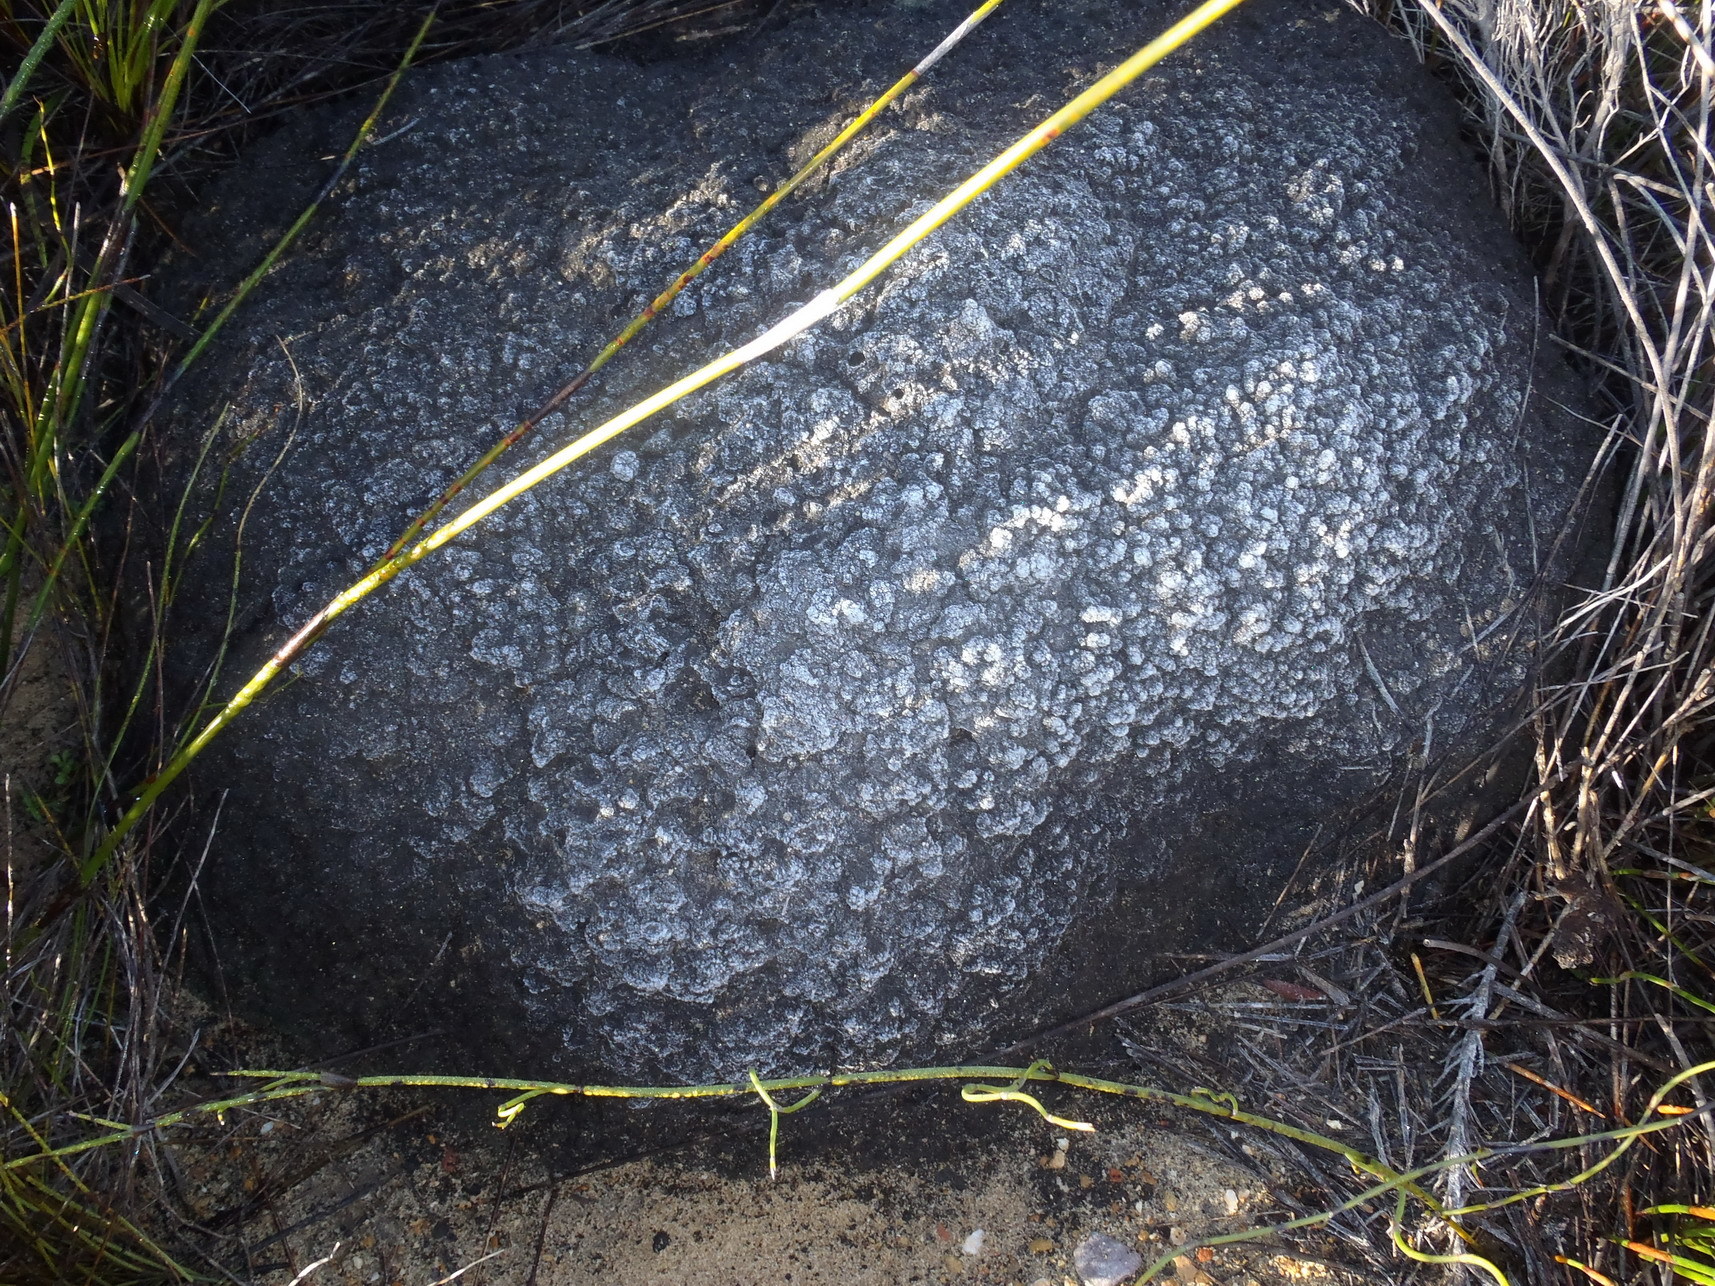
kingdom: Animalia
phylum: Arthropoda
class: Insecta
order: Blattodea
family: Termitidae
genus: Amitermes
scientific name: Amitermes hastatus
